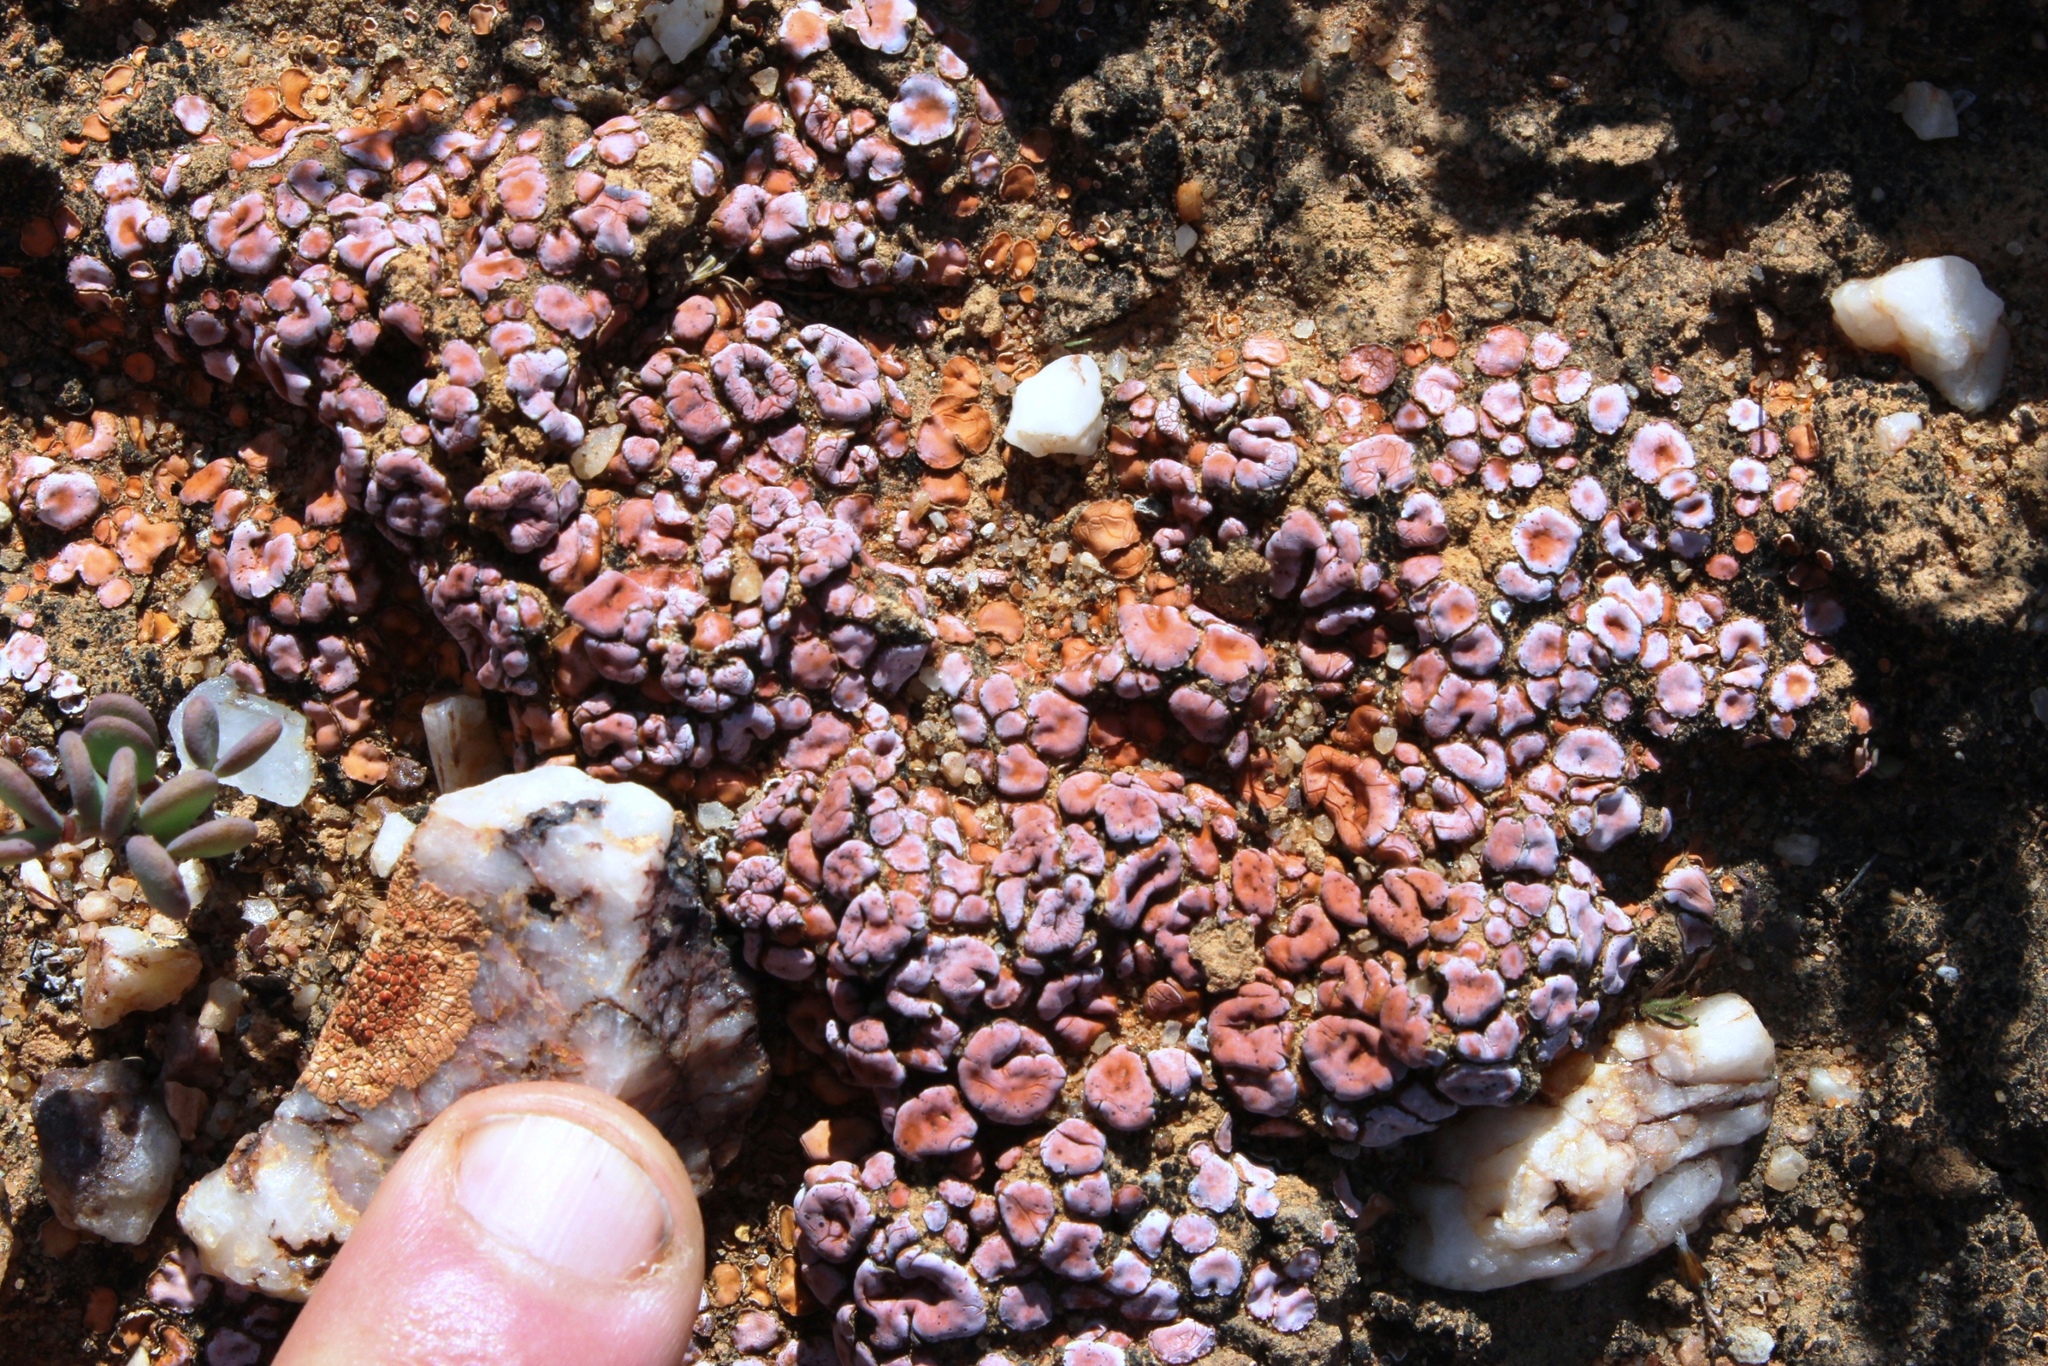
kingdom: Fungi
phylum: Ascomycota
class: Lecanoromycetes
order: Lecanorales
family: Psoraceae
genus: Psora
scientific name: Psora crenata
